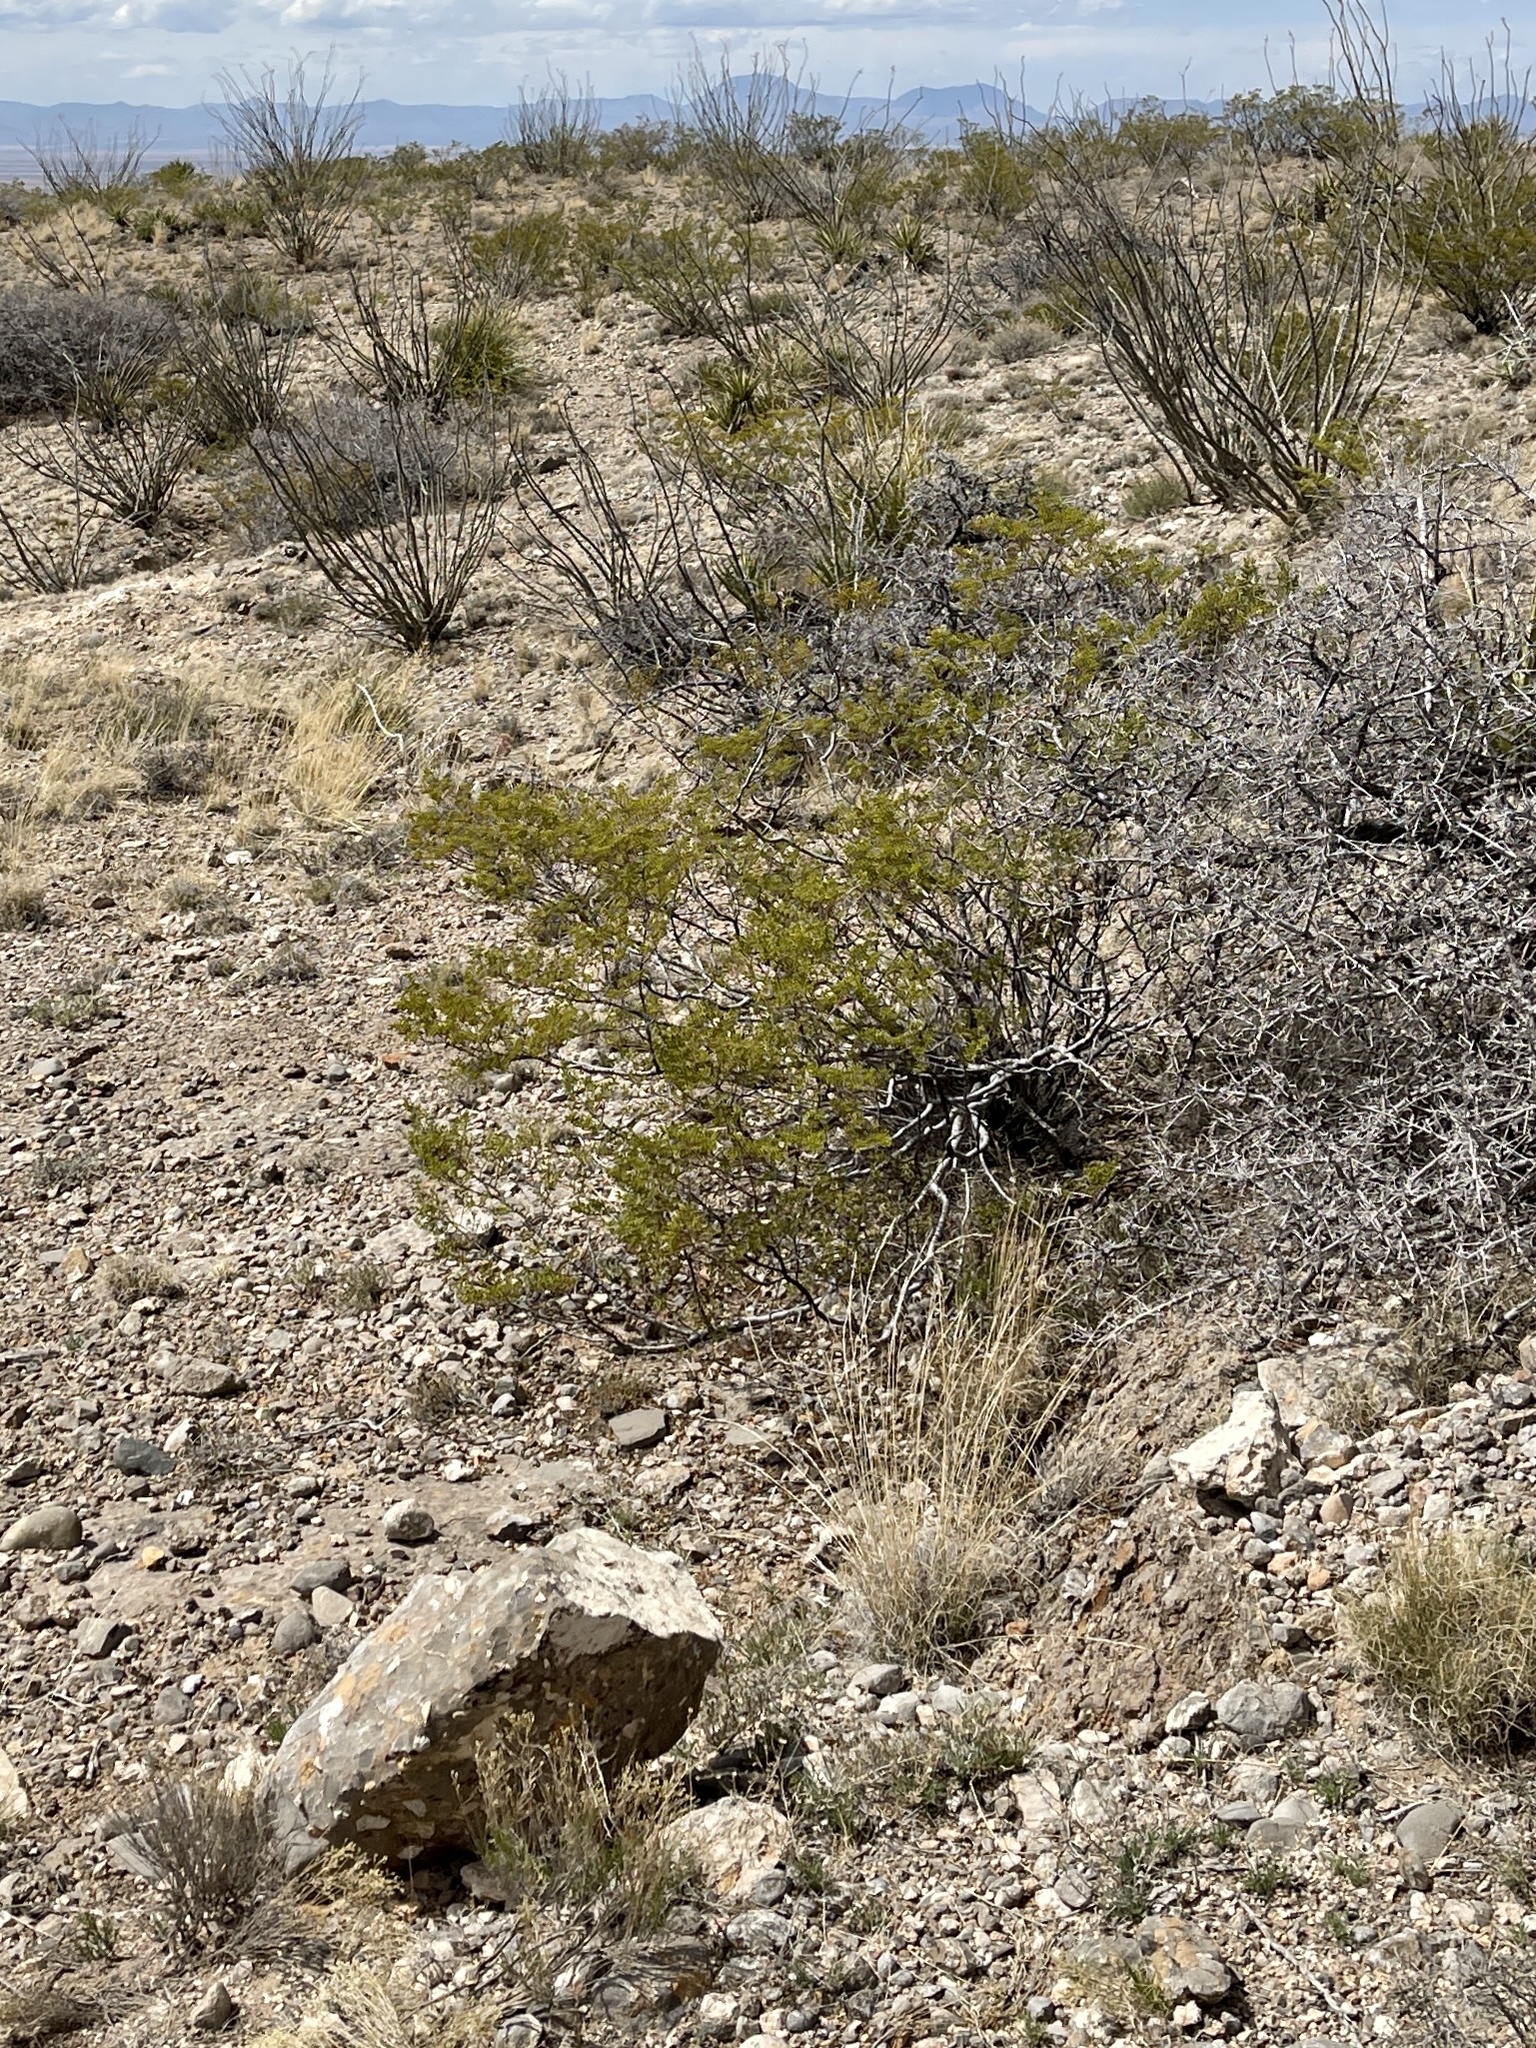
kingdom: Plantae
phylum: Tracheophyta
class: Magnoliopsida
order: Zygophyllales
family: Zygophyllaceae
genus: Larrea
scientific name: Larrea tridentata
